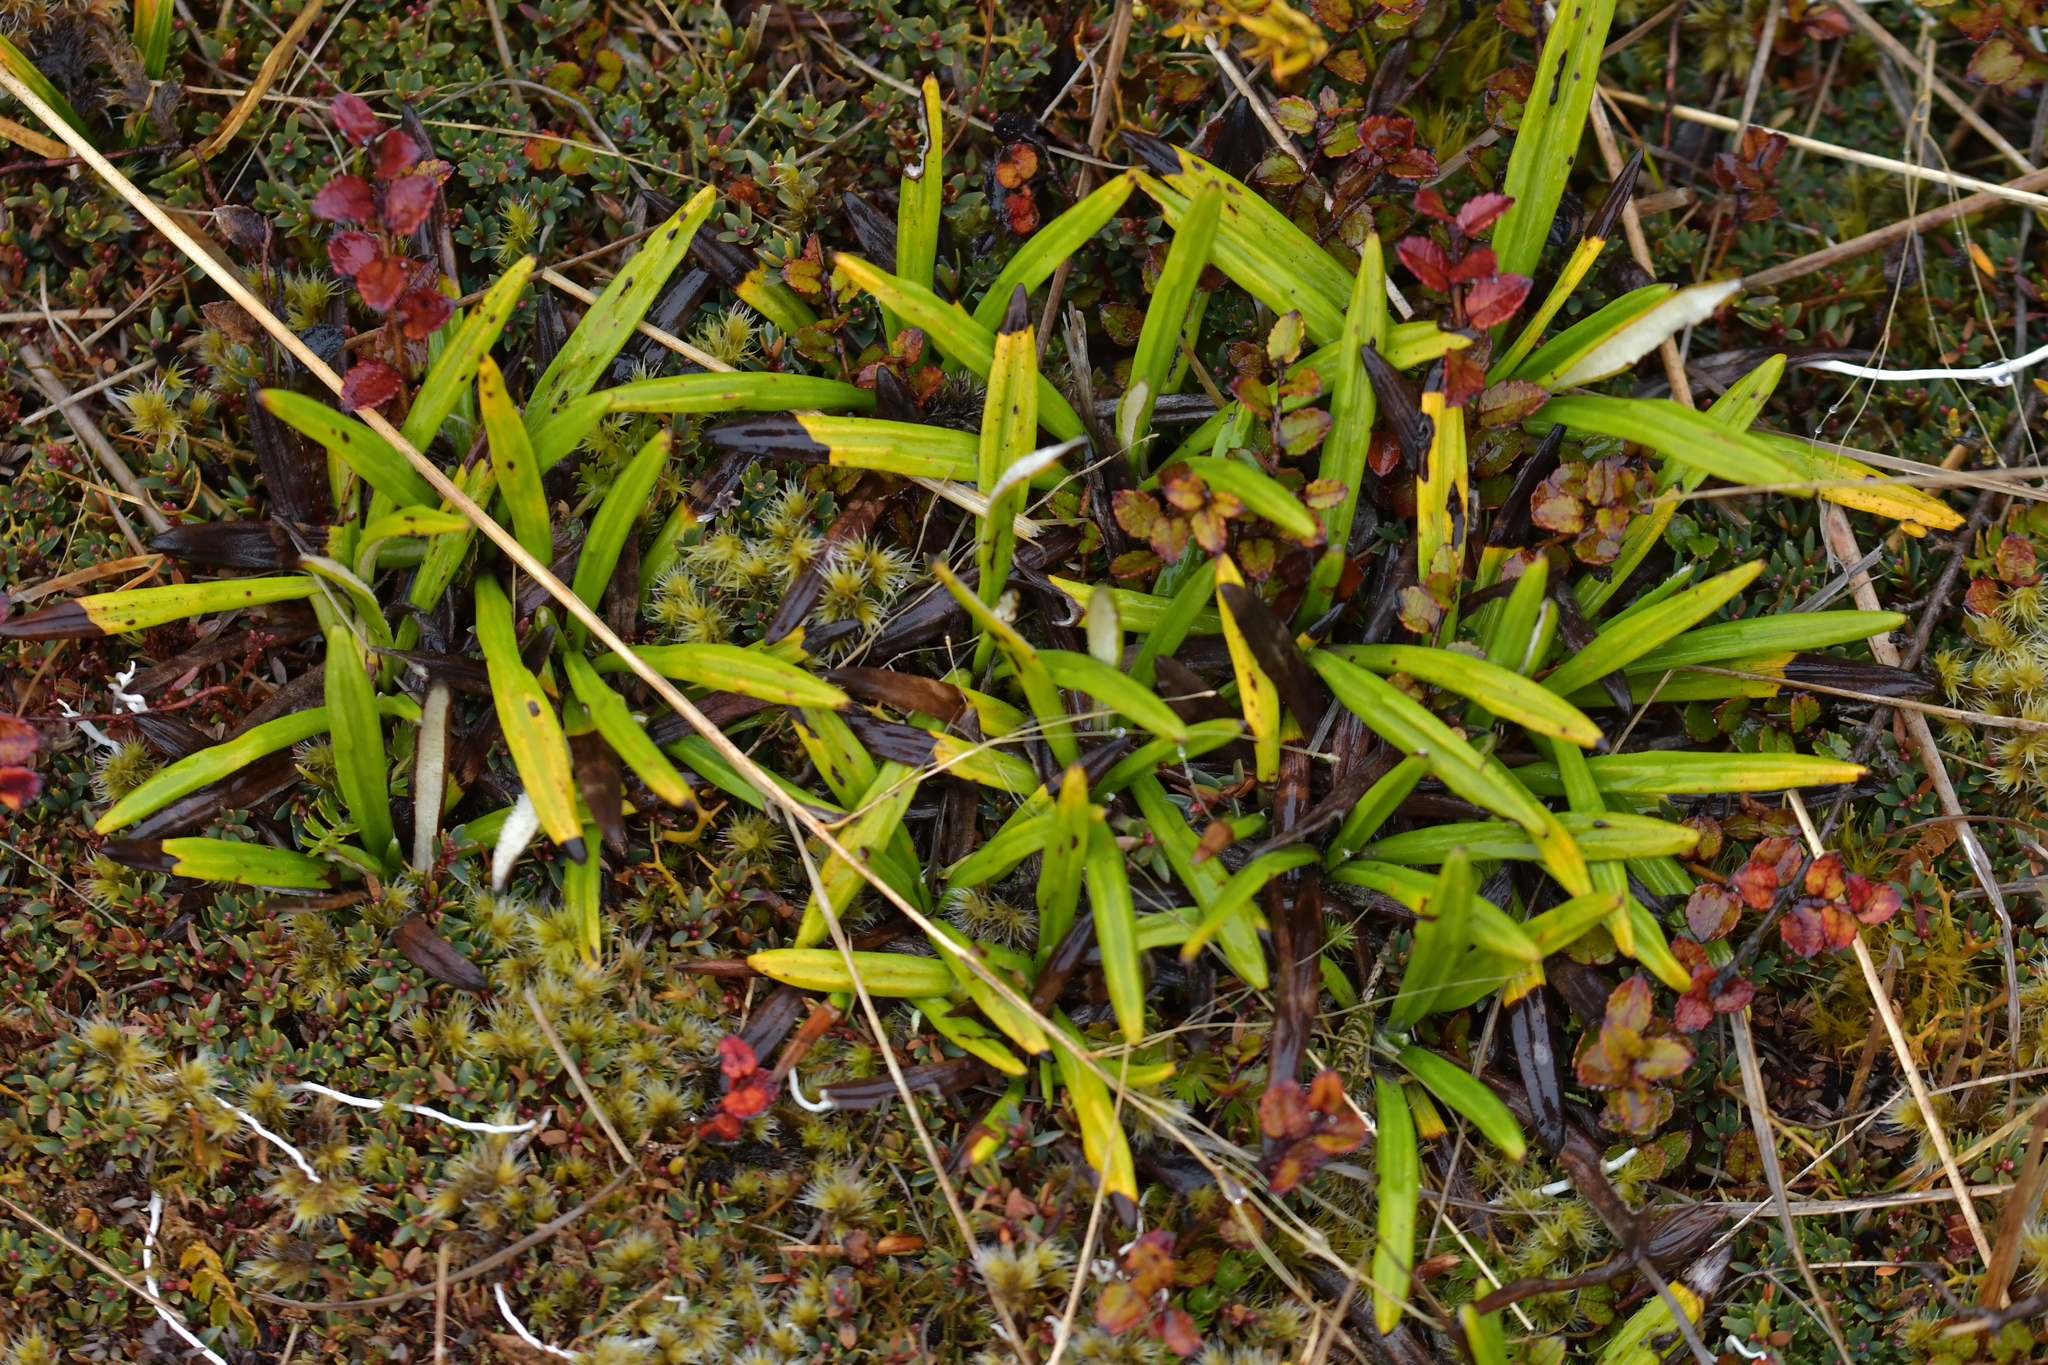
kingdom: Plantae
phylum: Tracheophyta
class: Magnoliopsida
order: Asterales
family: Asteraceae
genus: Celmisia
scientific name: Celmisia spectabilis
